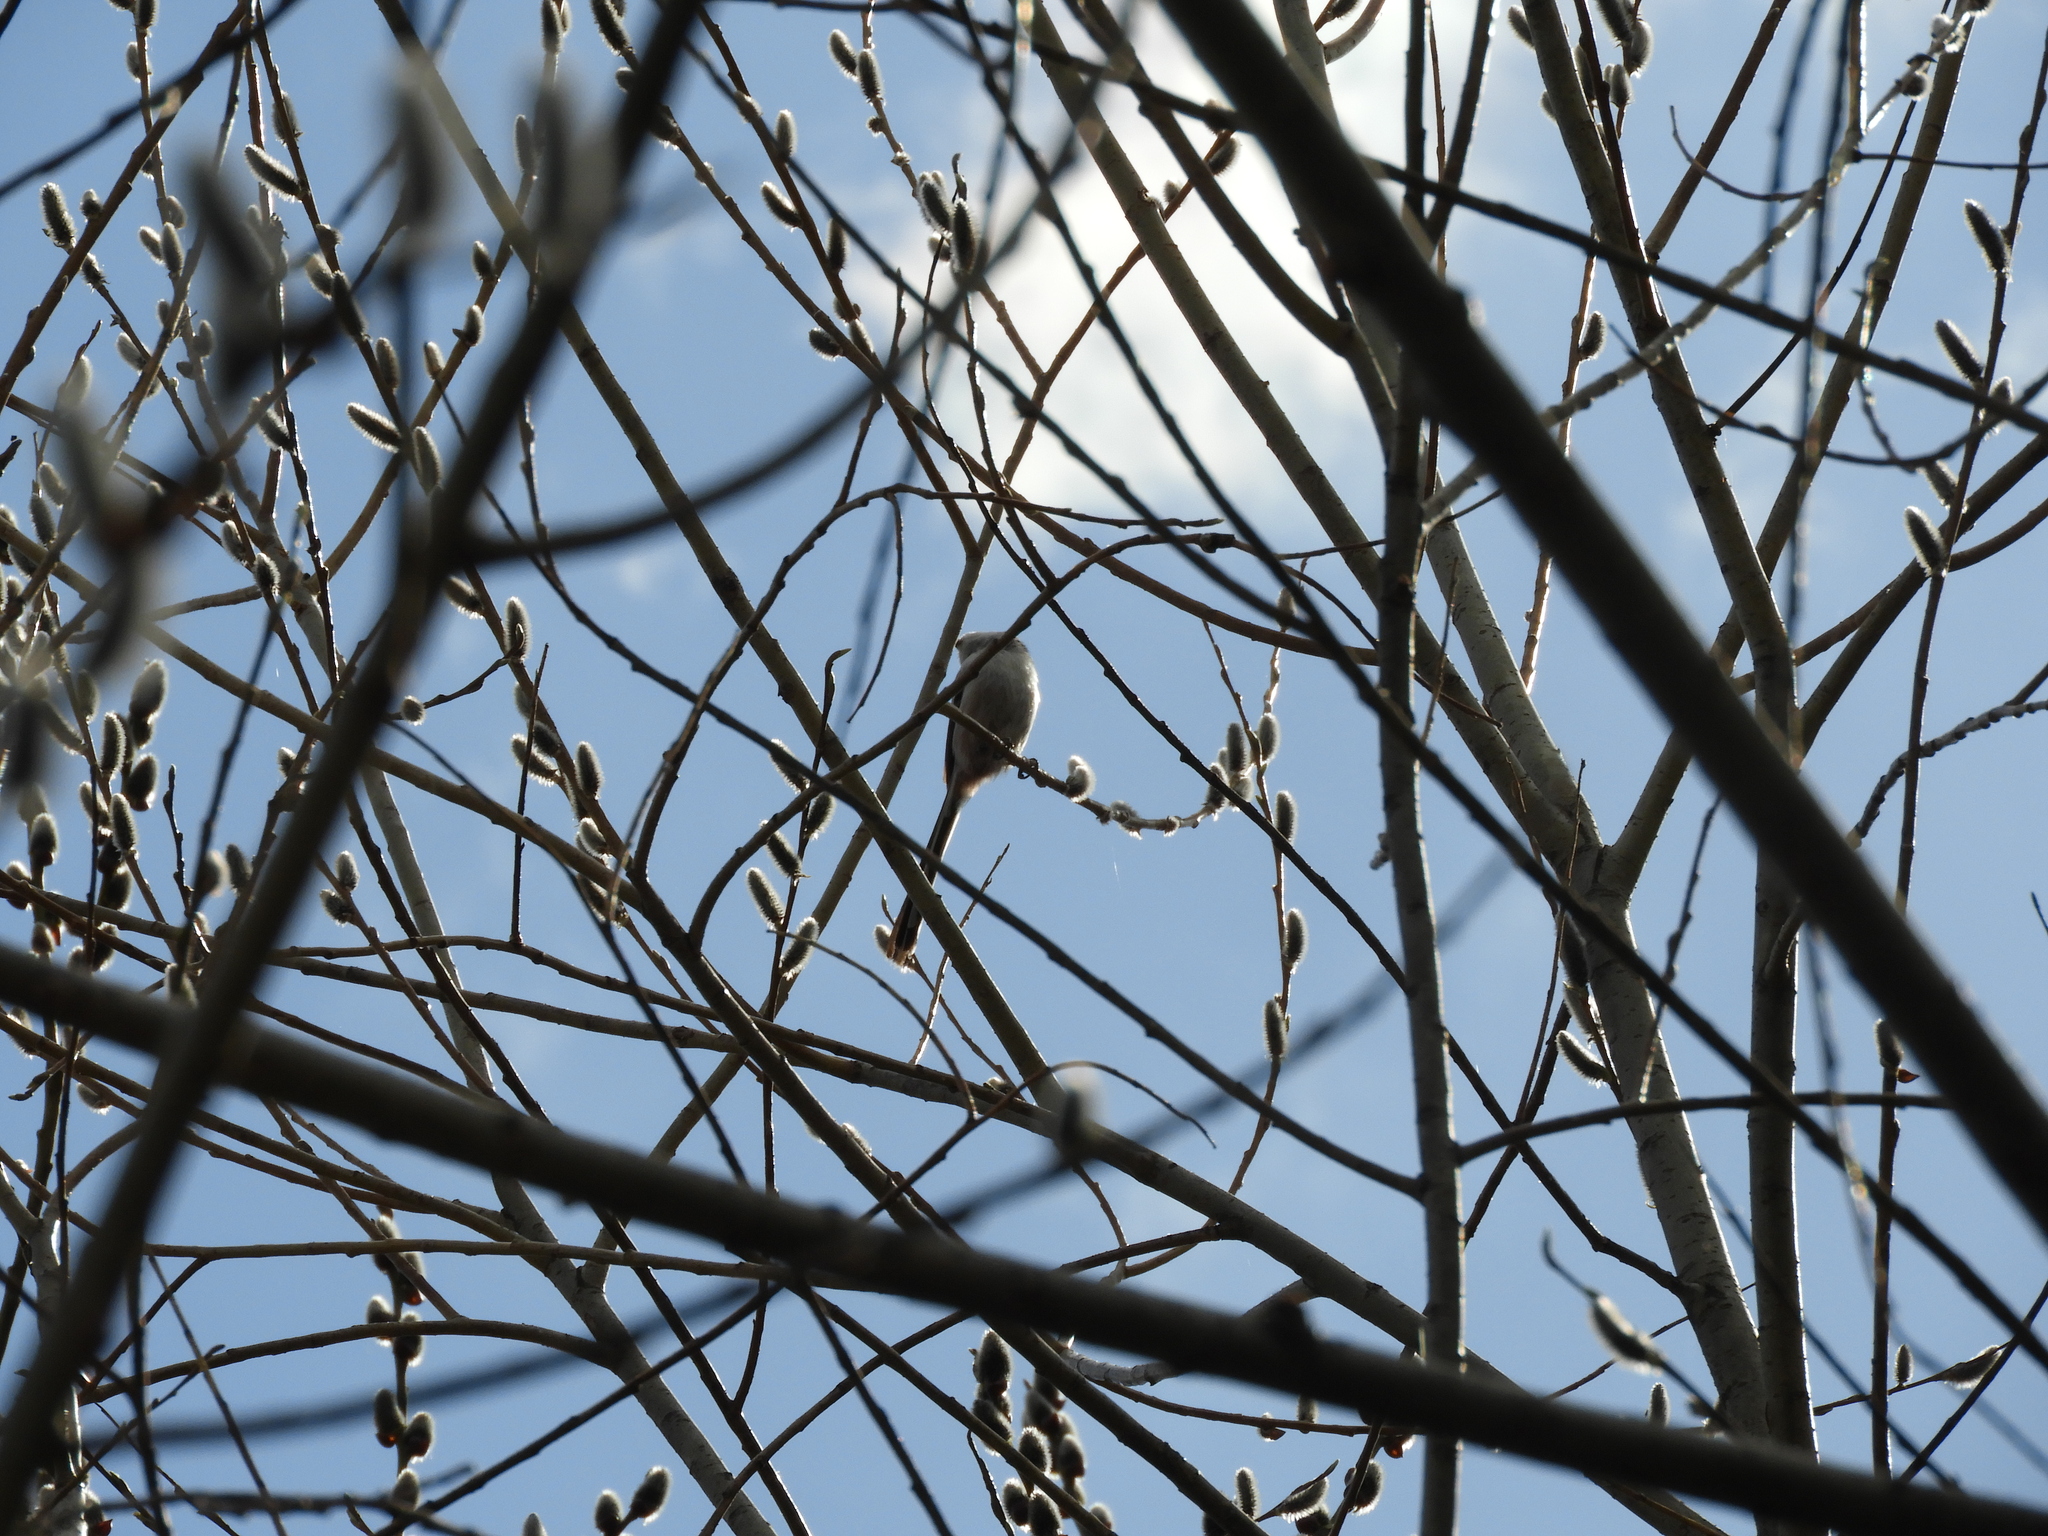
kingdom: Animalia
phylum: Chordata
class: Aves
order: Passeriformes
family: Aegithalidae
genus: Aegithalos
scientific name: Aegithalos caudatus
